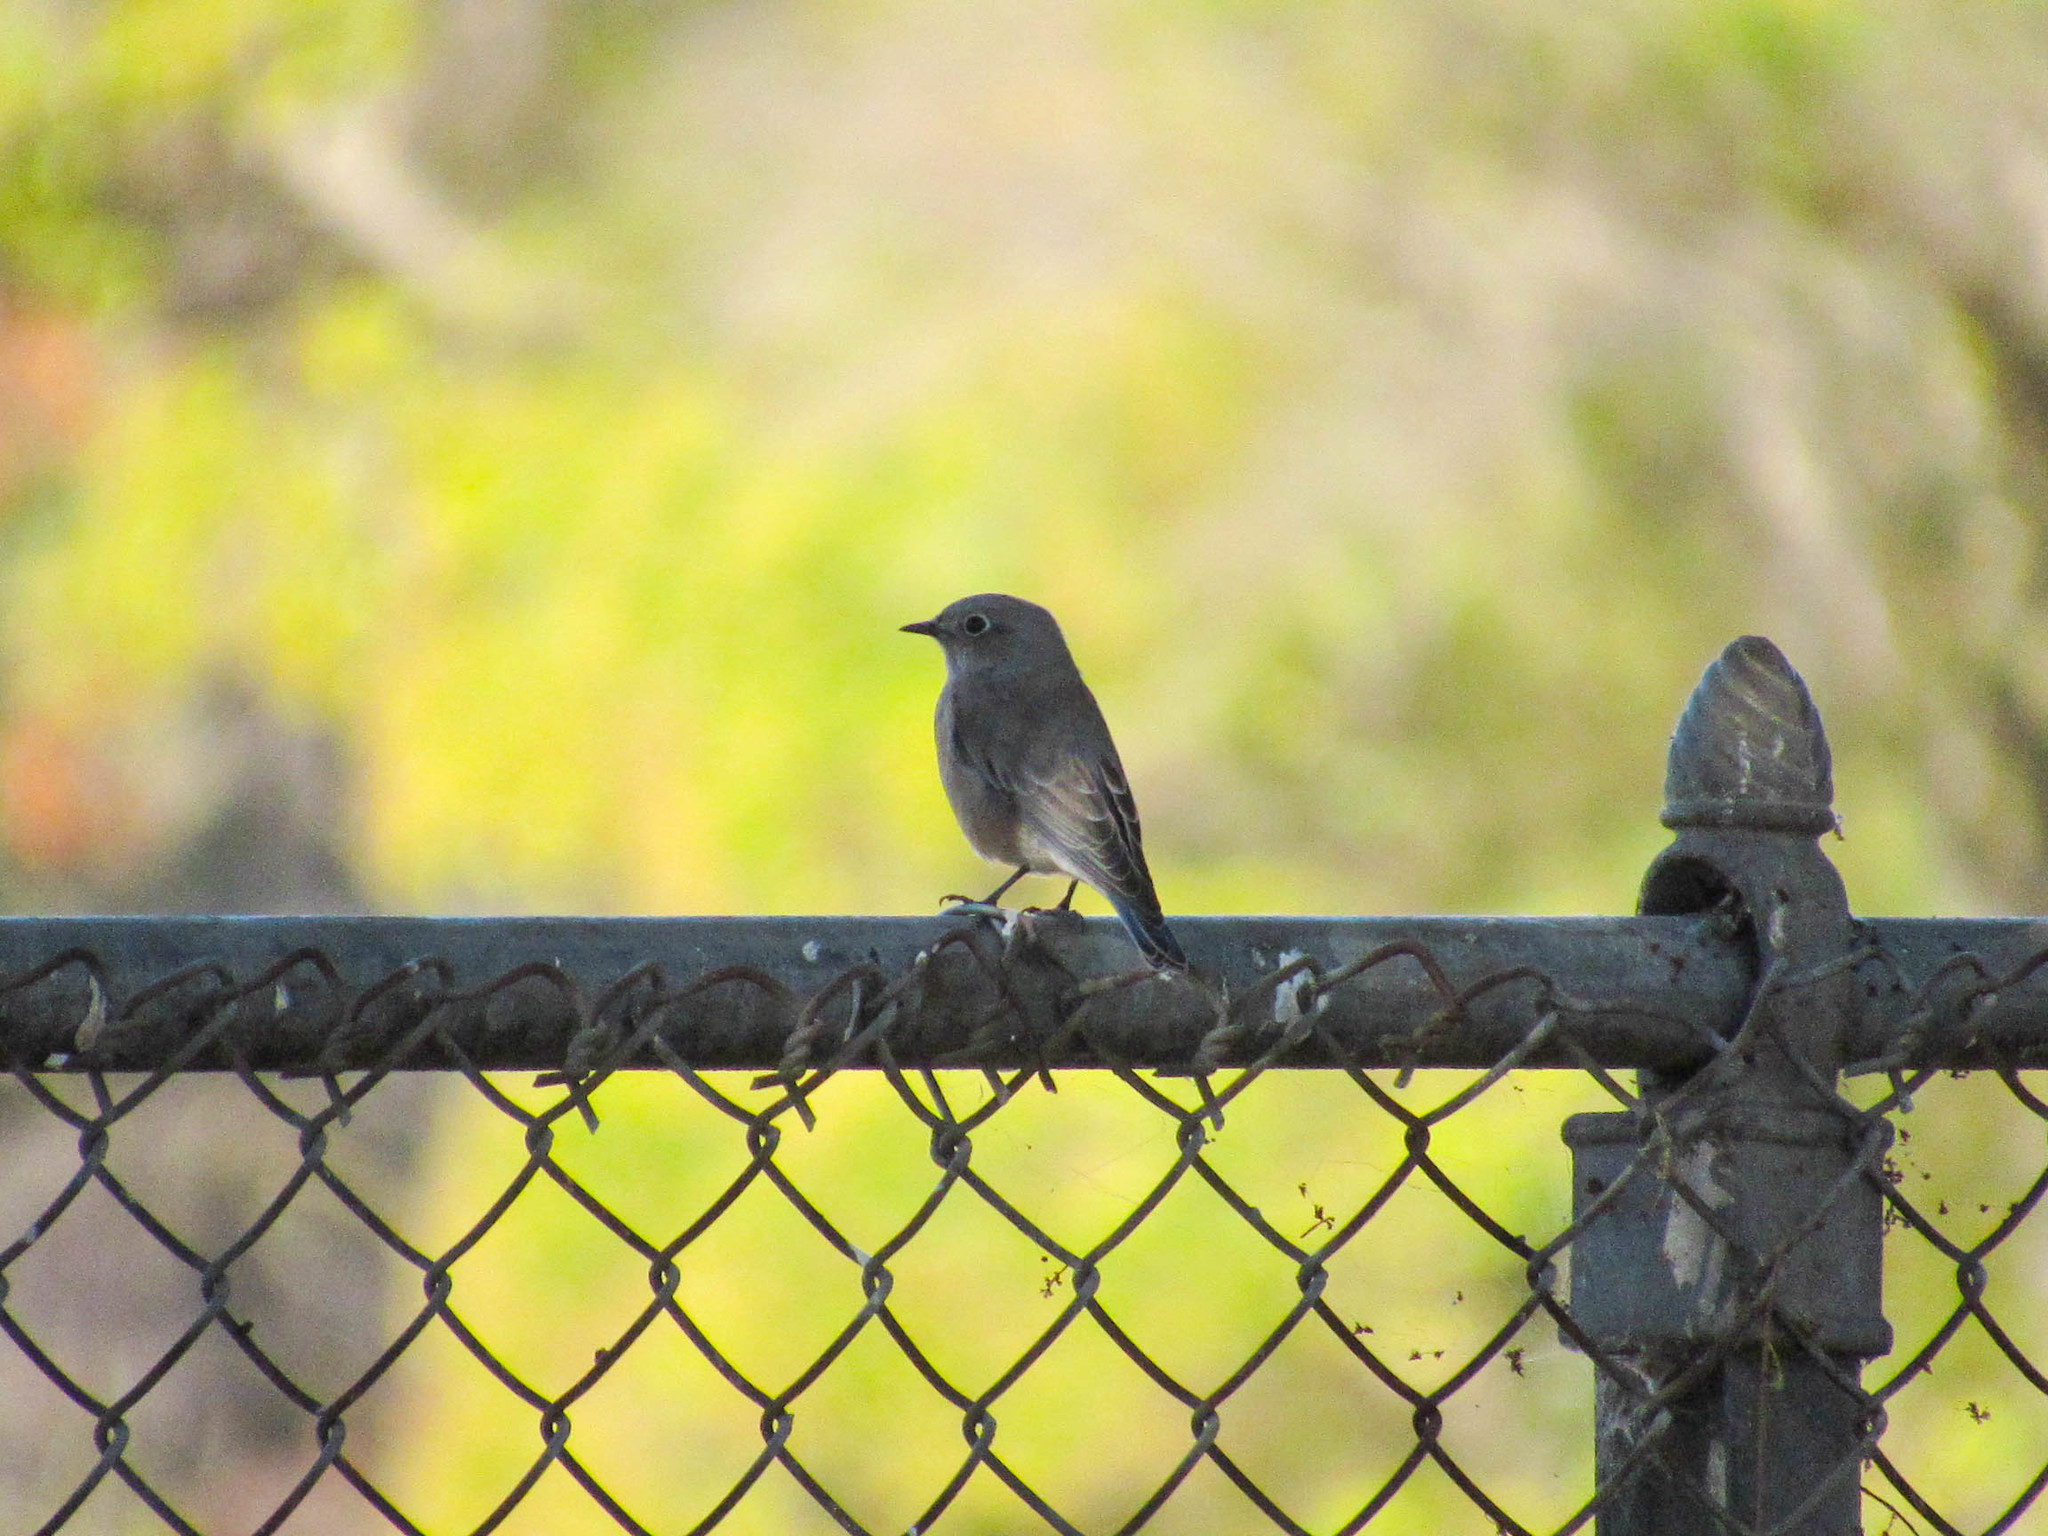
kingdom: Animalia
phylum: Chordata
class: Aves
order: Passeriformes
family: Turdidae
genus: Sialia
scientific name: Sialia mexicana
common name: Western bluebird
